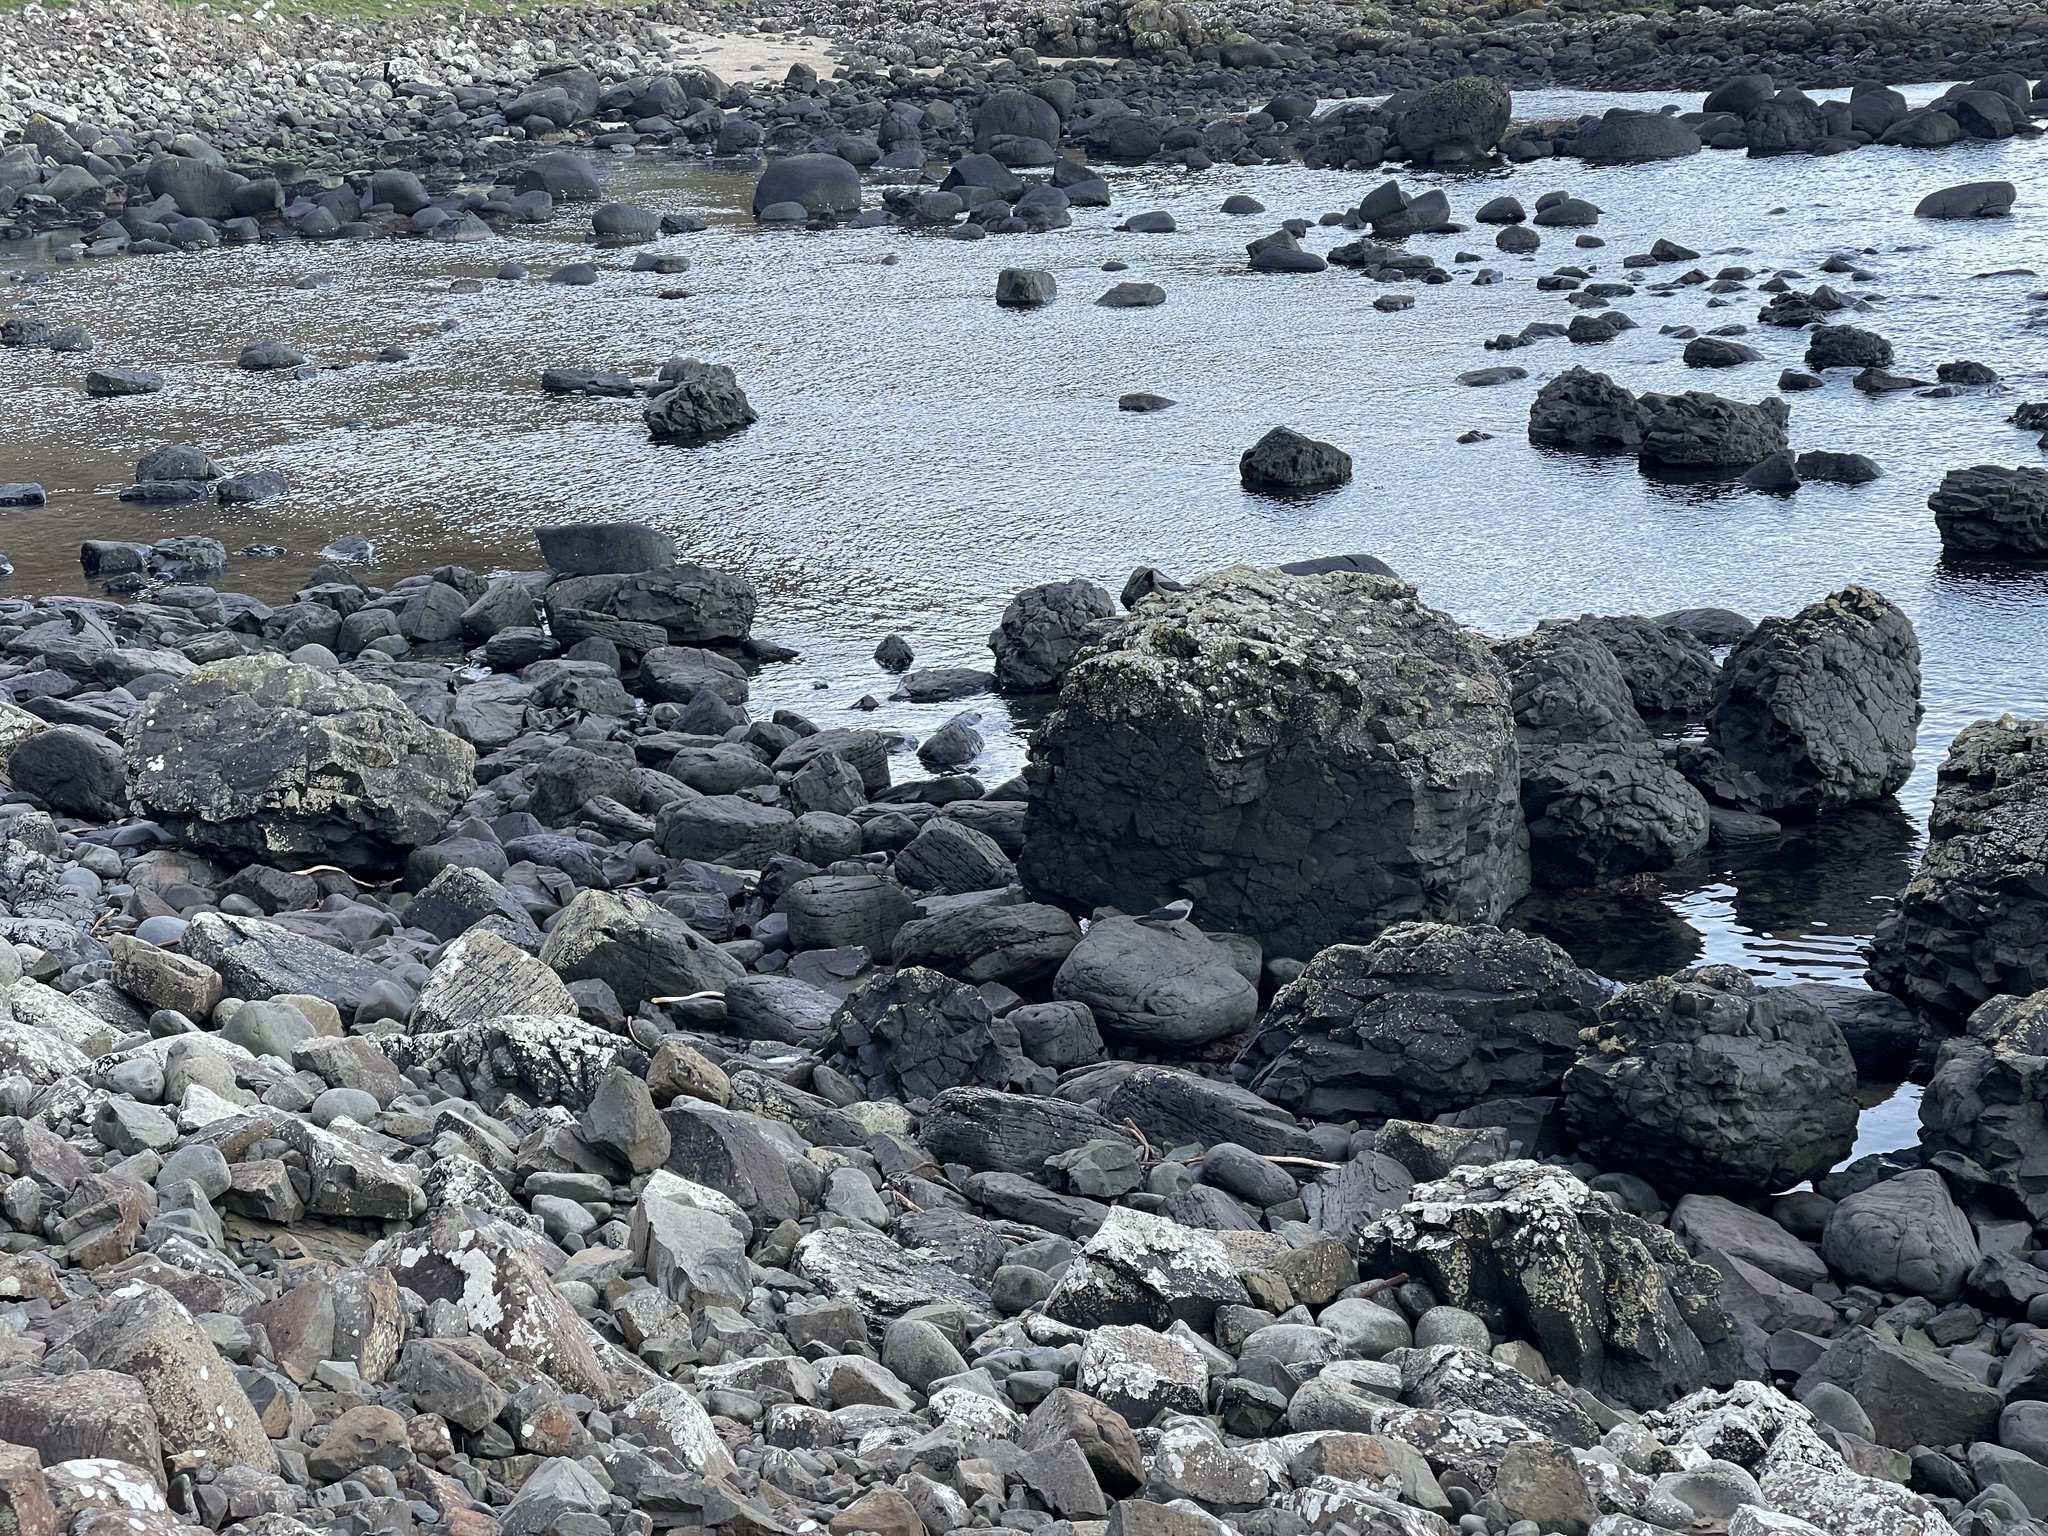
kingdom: Animalia
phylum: Chordata
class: Aves
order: Passeriformes
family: Corvidae
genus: Corvus
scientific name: Corvus cornix
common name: Hooded crow
